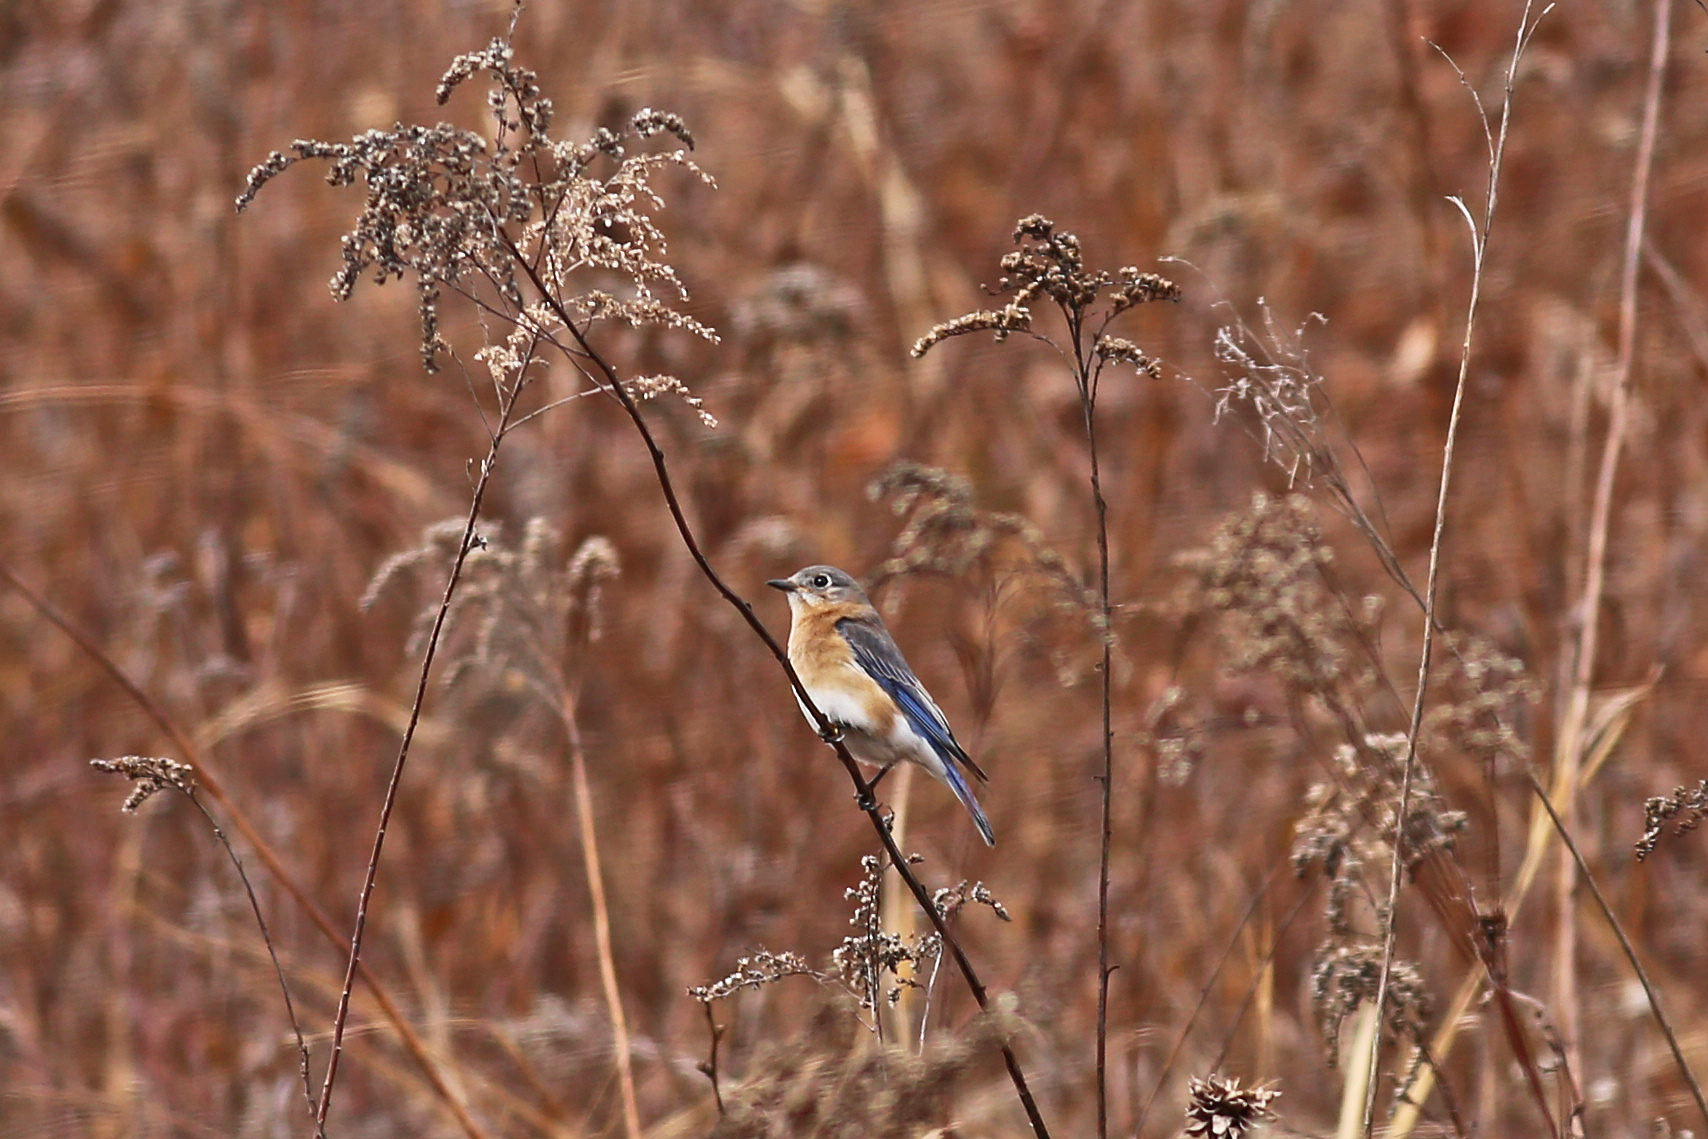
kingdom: Animalia
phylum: Chordata
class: Aves
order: Passeriformes
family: Turdidae
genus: Sialia
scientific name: Sialia sialis
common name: Eastern bluebird
